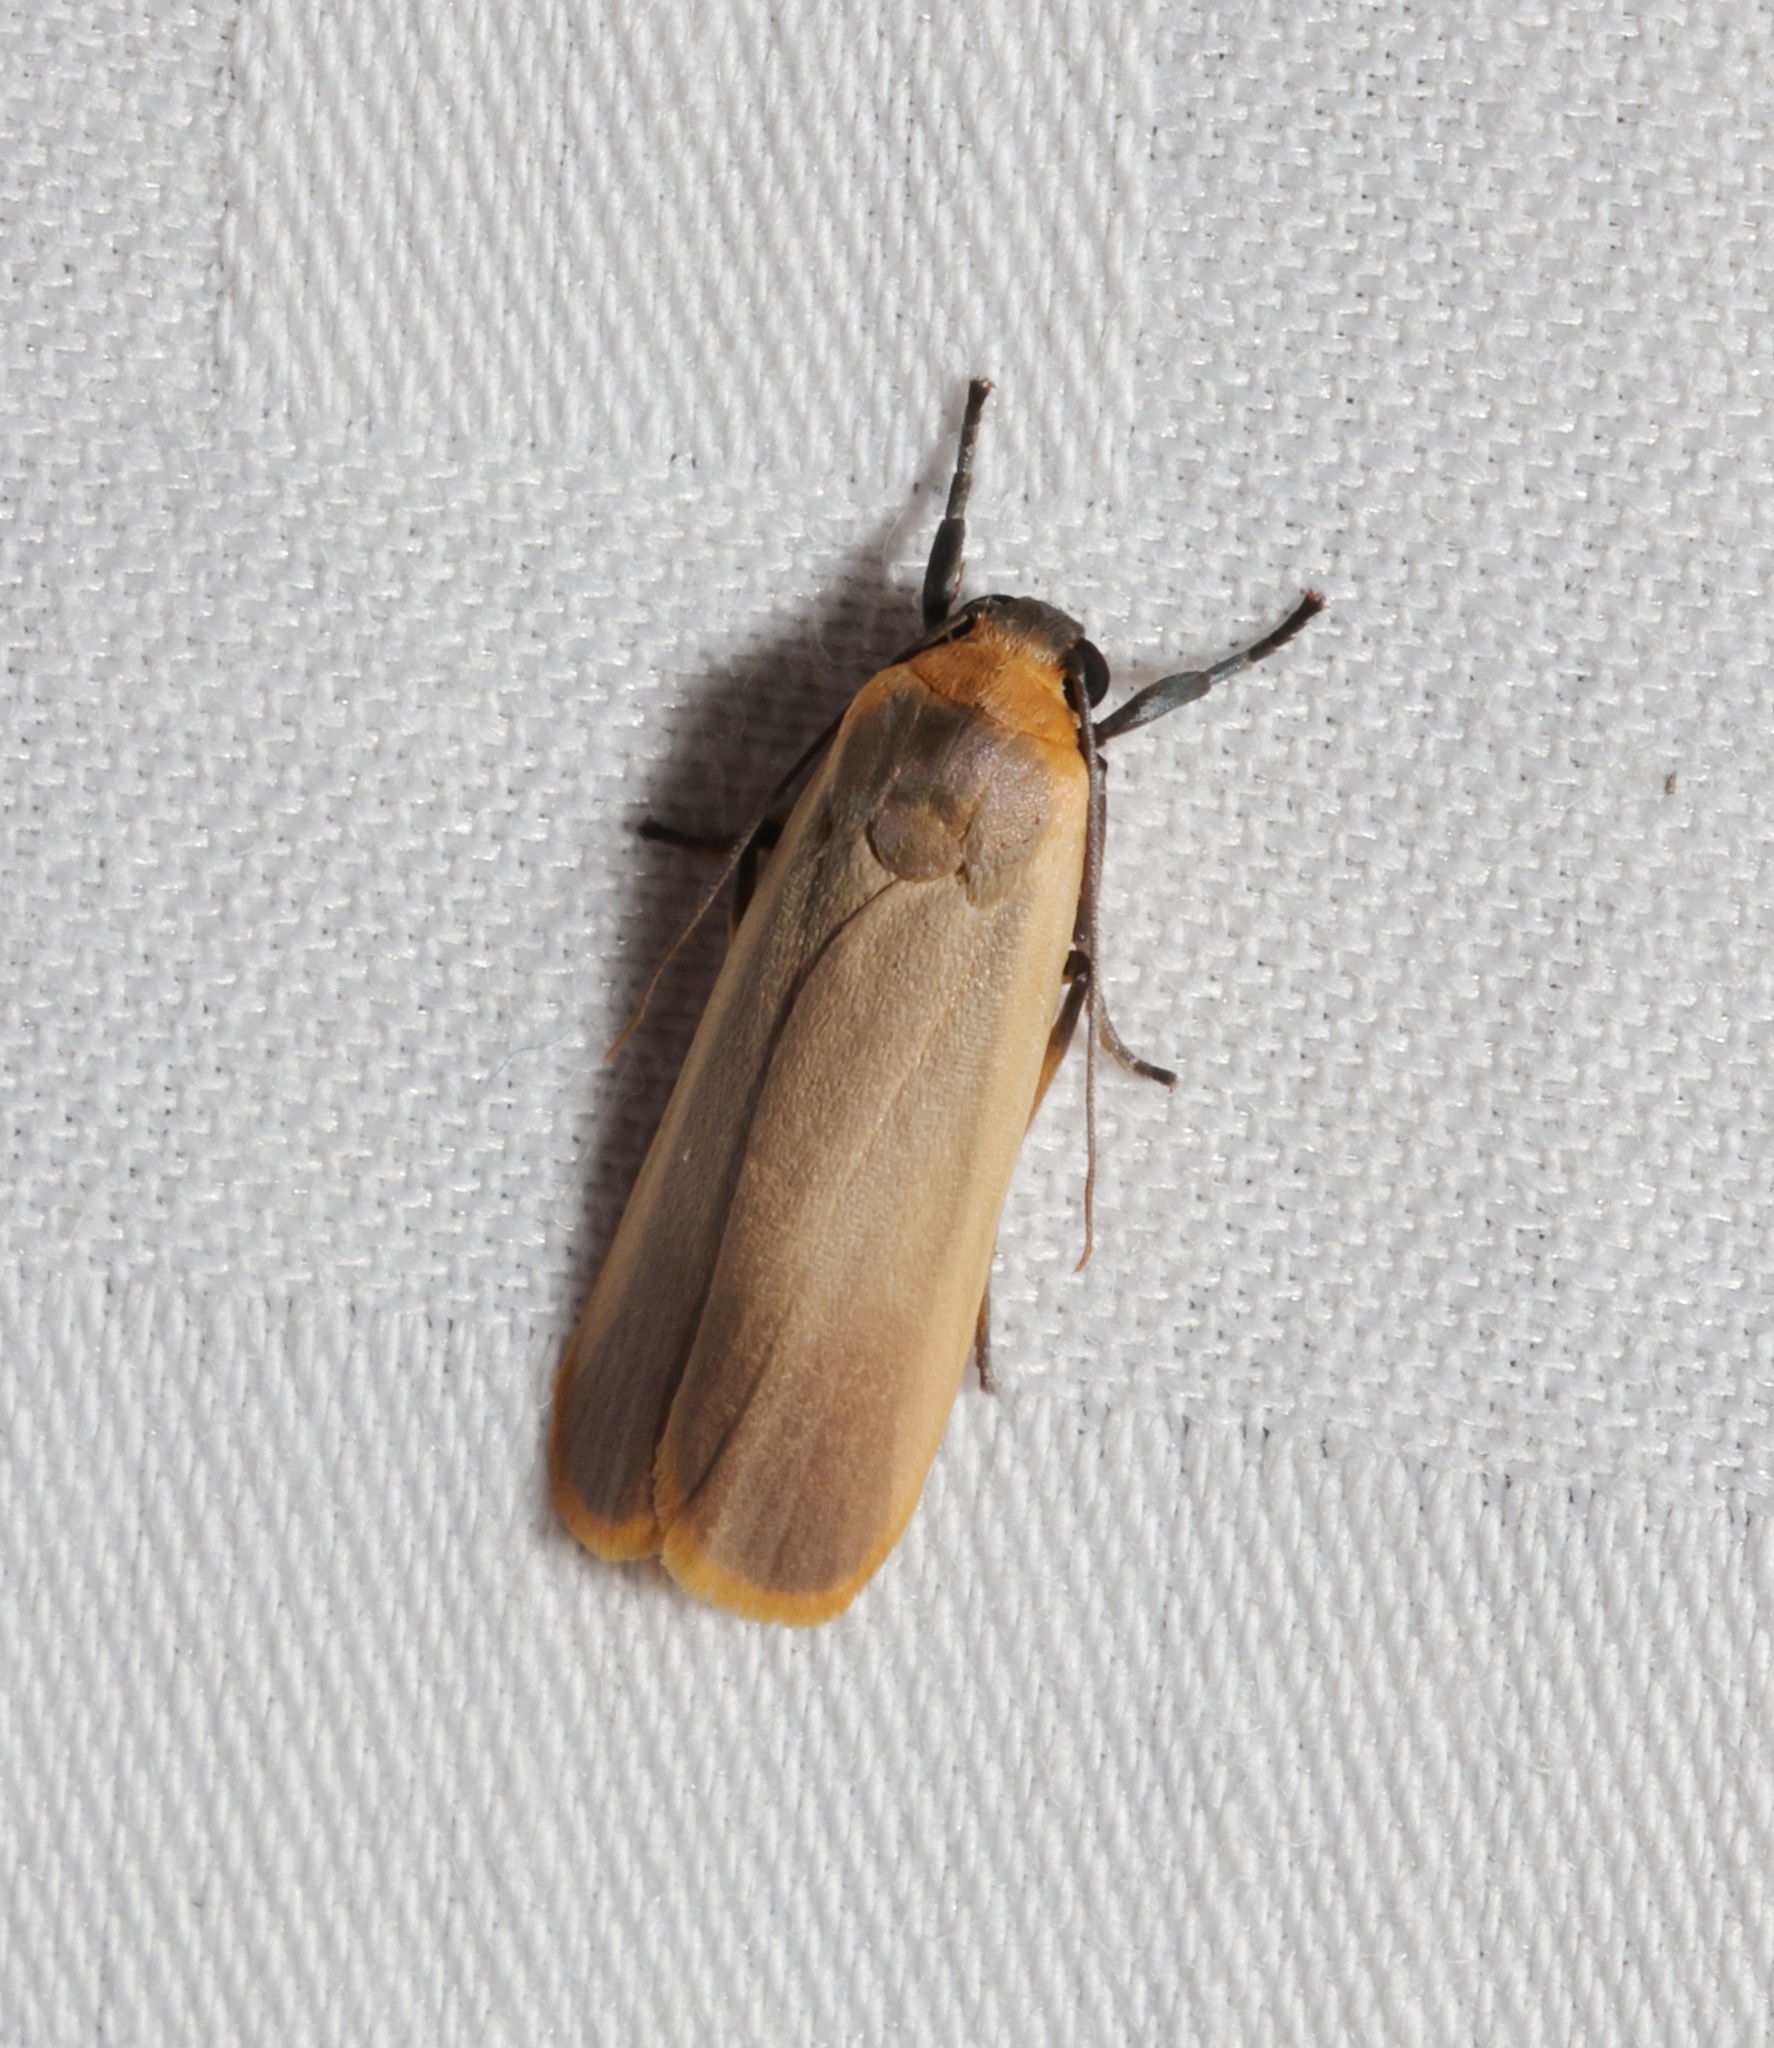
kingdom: Animalia
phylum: Arthropoda
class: Insecta
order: Lepidoptera
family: Erebidae
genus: Brunia
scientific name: Brunia antica
